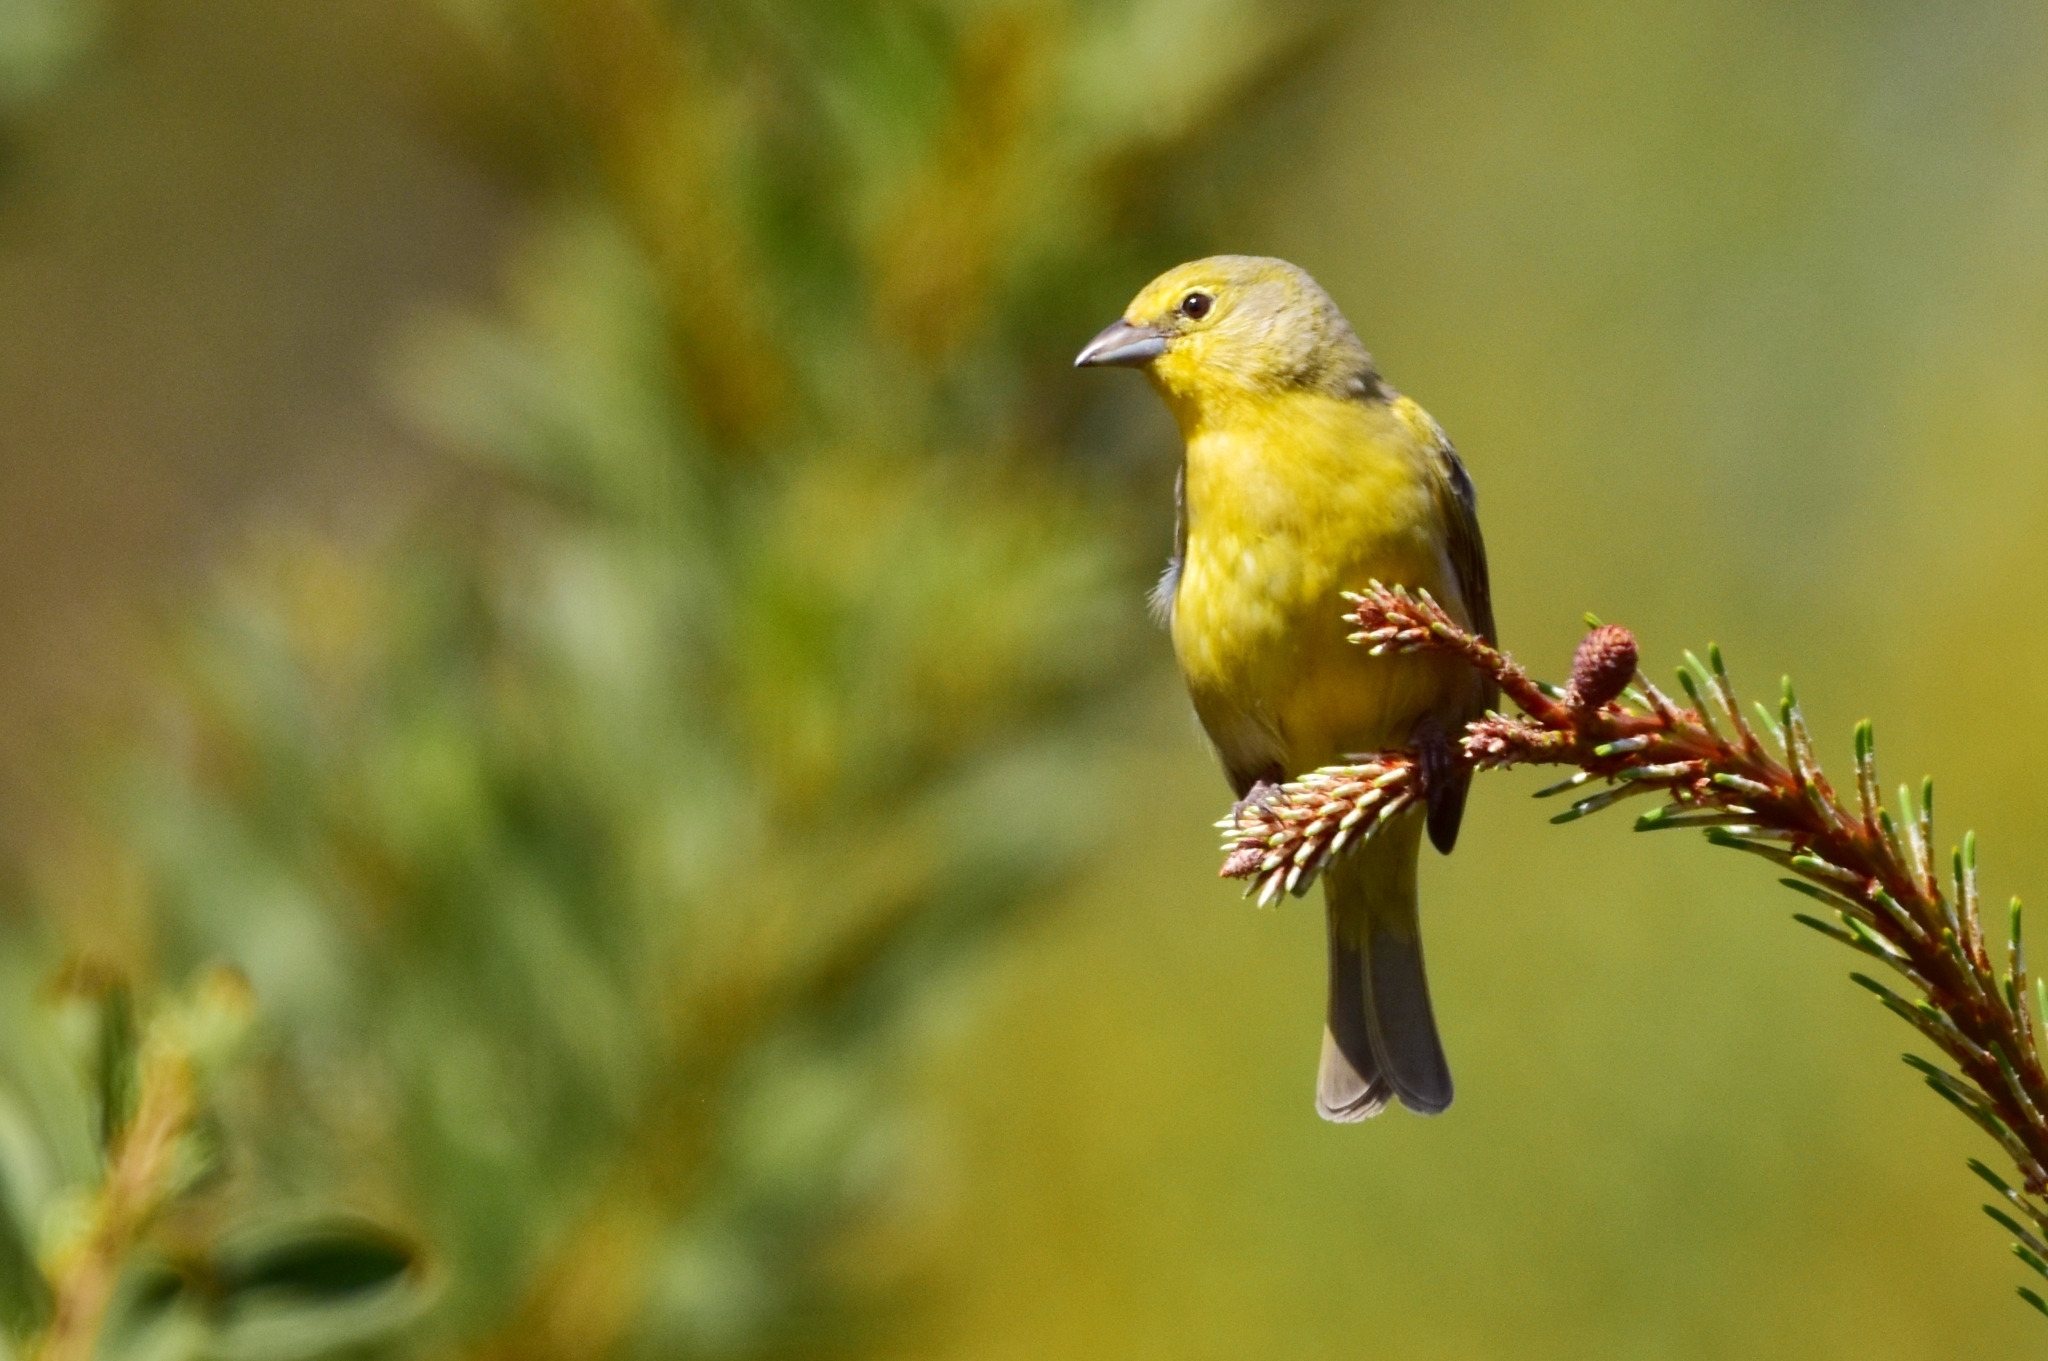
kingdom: Animalia
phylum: Chordata
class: Aves
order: Passeriformes
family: Cardinalidae
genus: Piranga
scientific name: Piranga flava
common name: Red tanager
